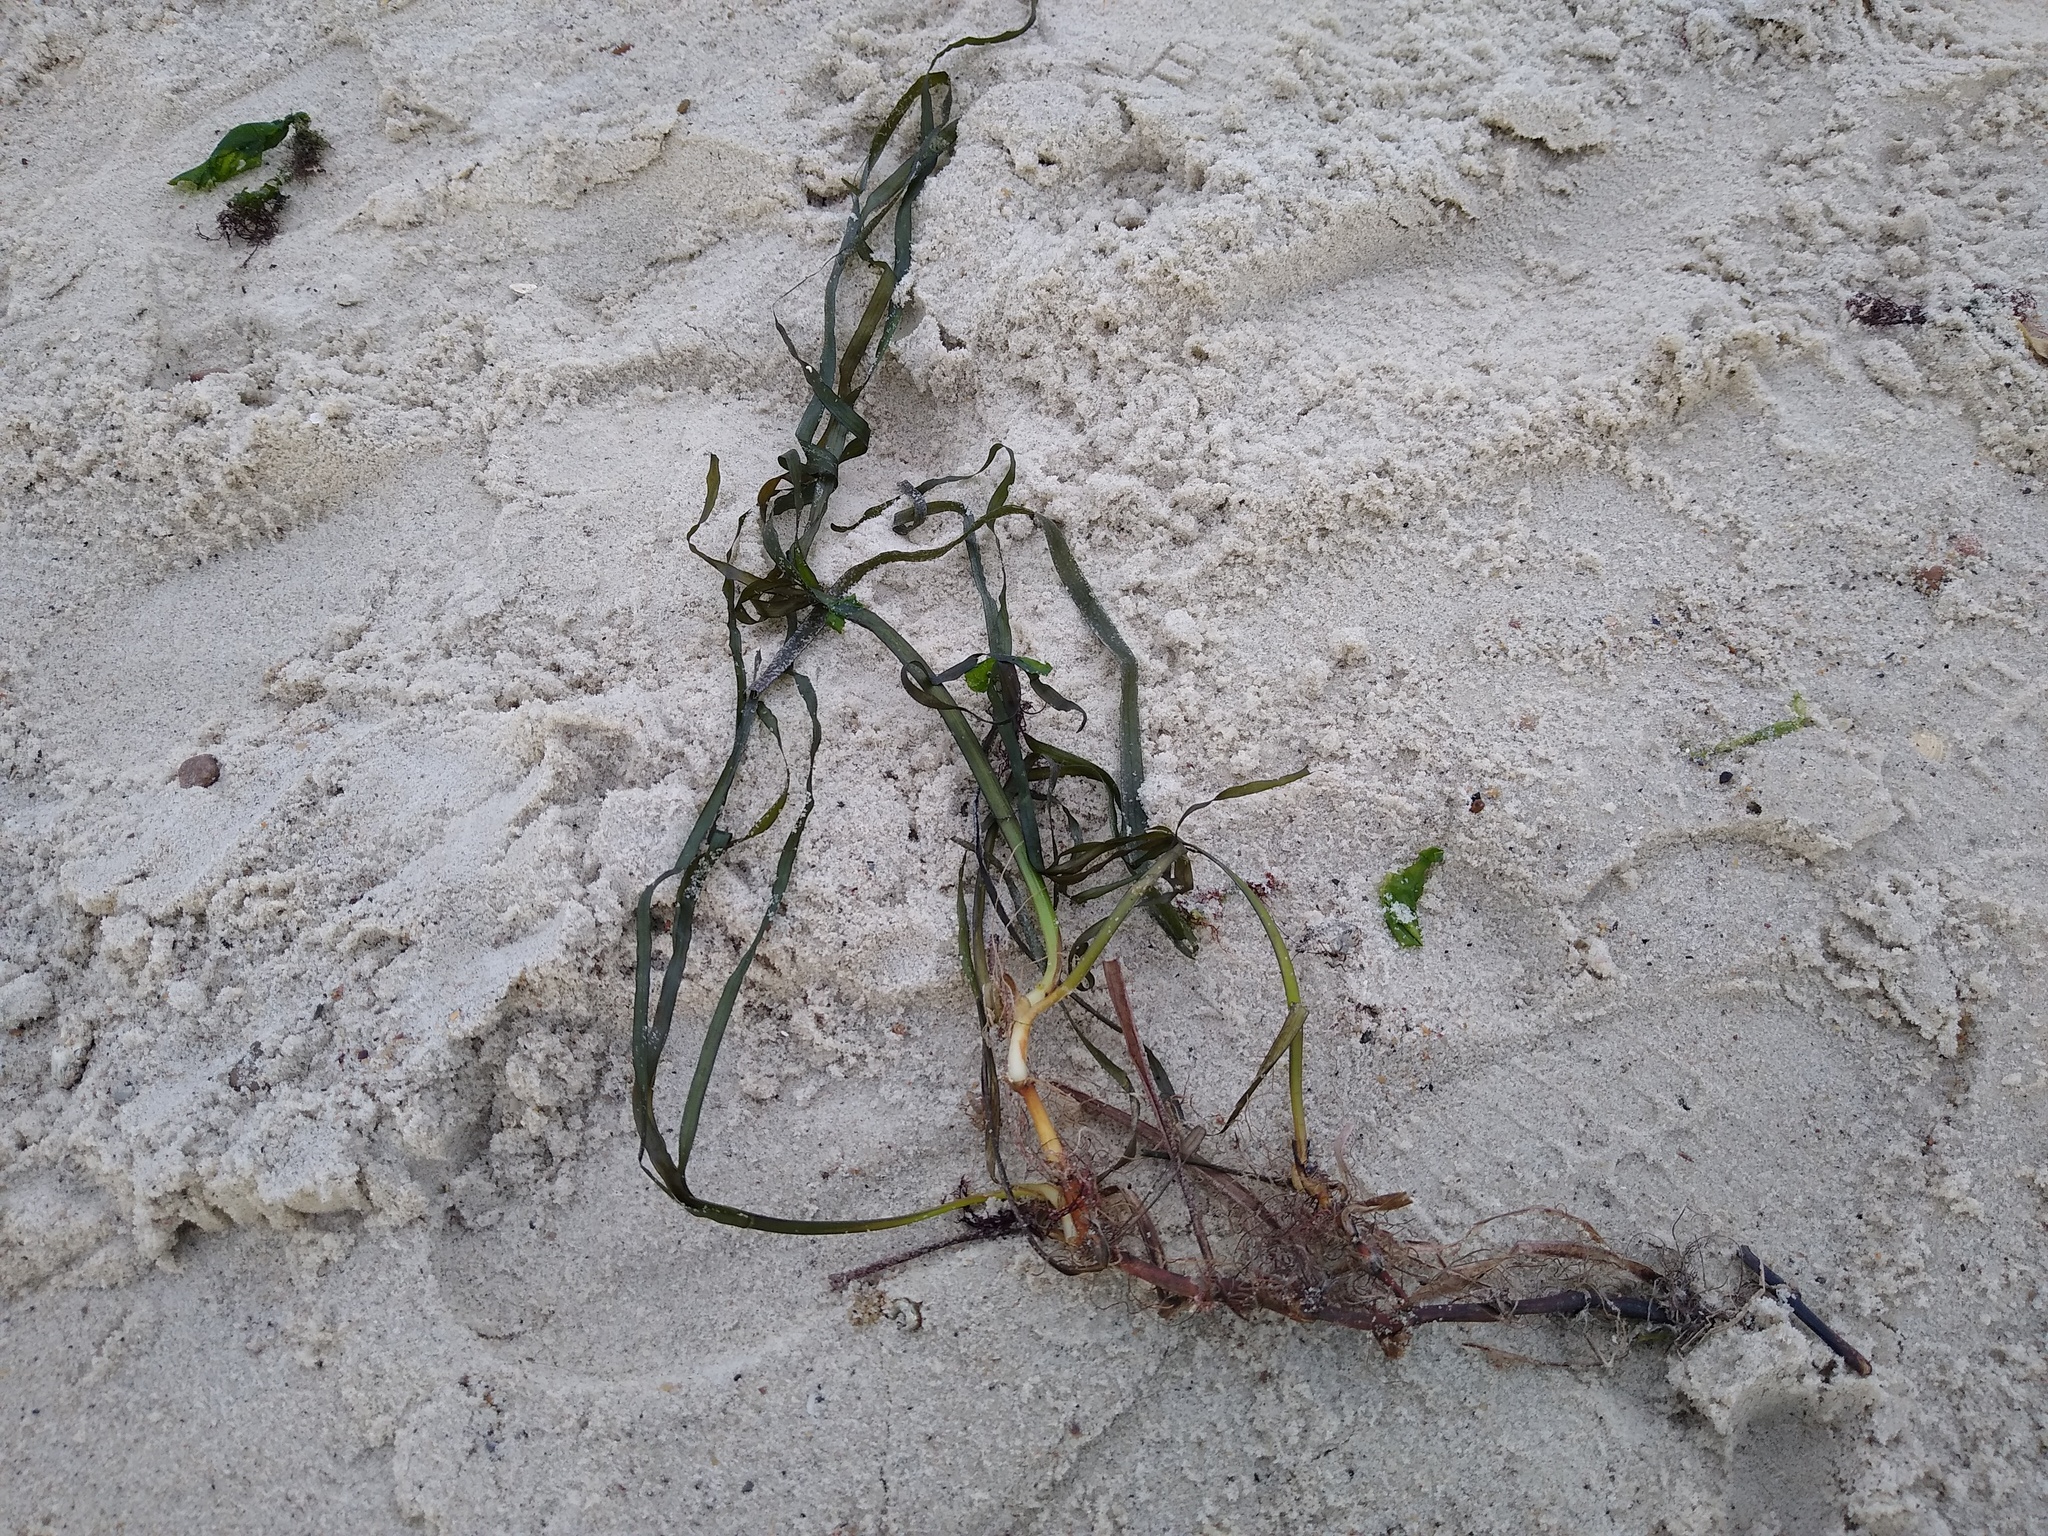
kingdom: Plantae
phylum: Tracheophyta
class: Liliopsida
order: Alismatales
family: Zosteraceae
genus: Zostera
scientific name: Zostera marina
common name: Eelgrass
